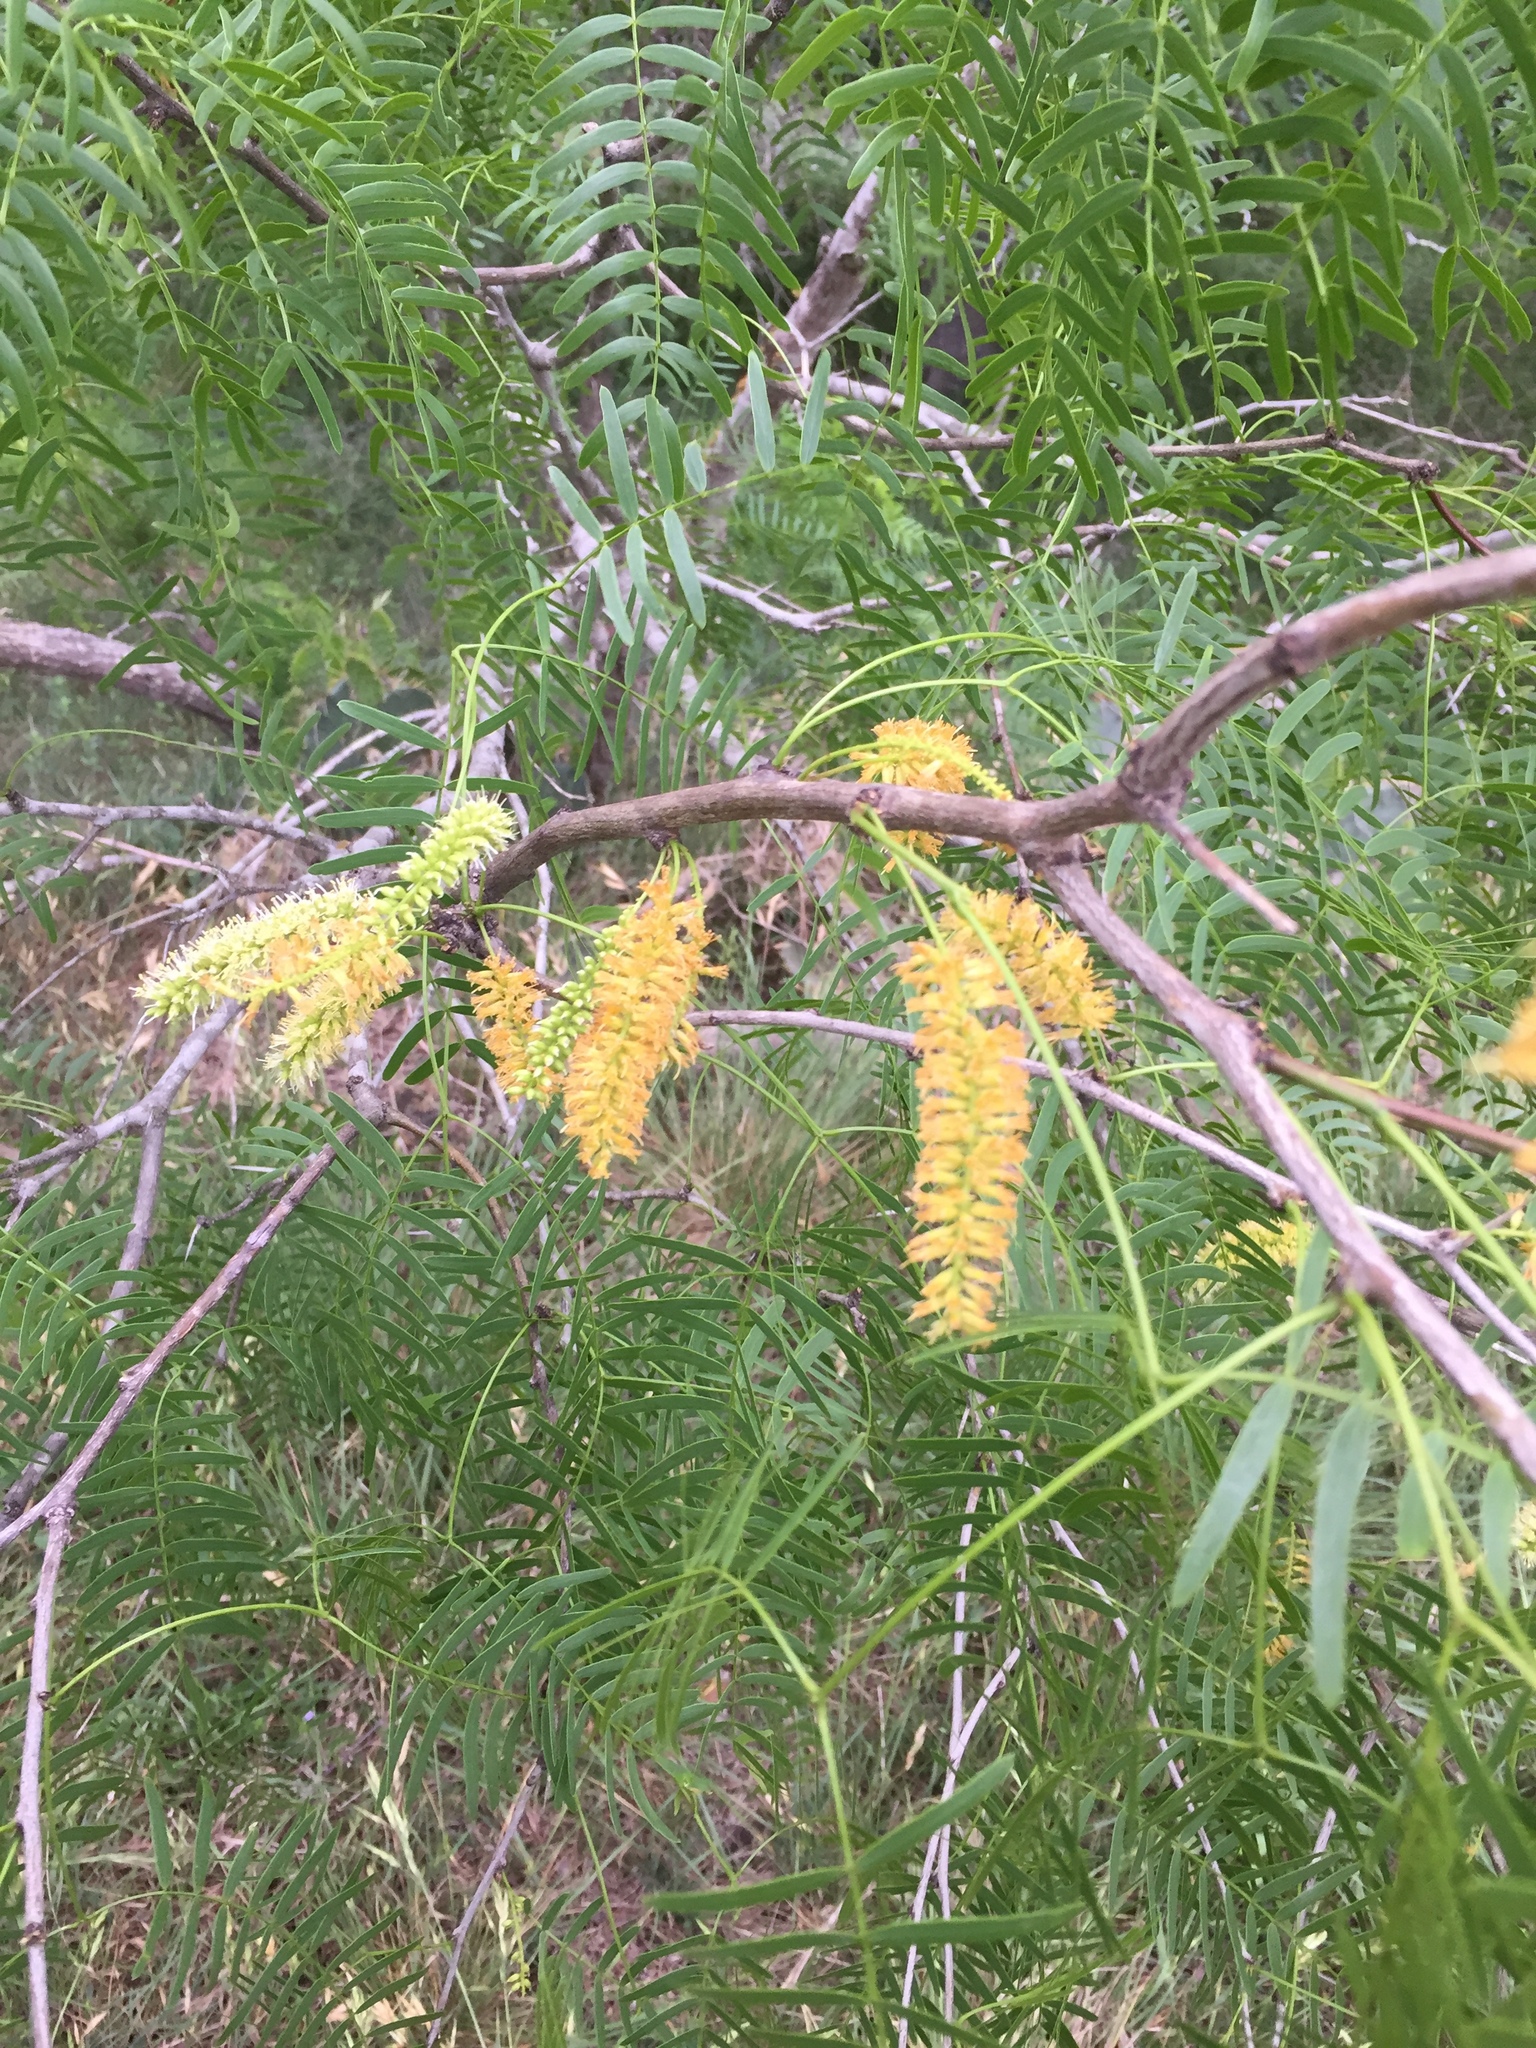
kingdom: Plantae
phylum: Tracheophyta
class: Magnoliopsida
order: Fabales
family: Fabaceae
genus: Prosopis
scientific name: Prosopis glandulosa
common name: Honey mesquite
